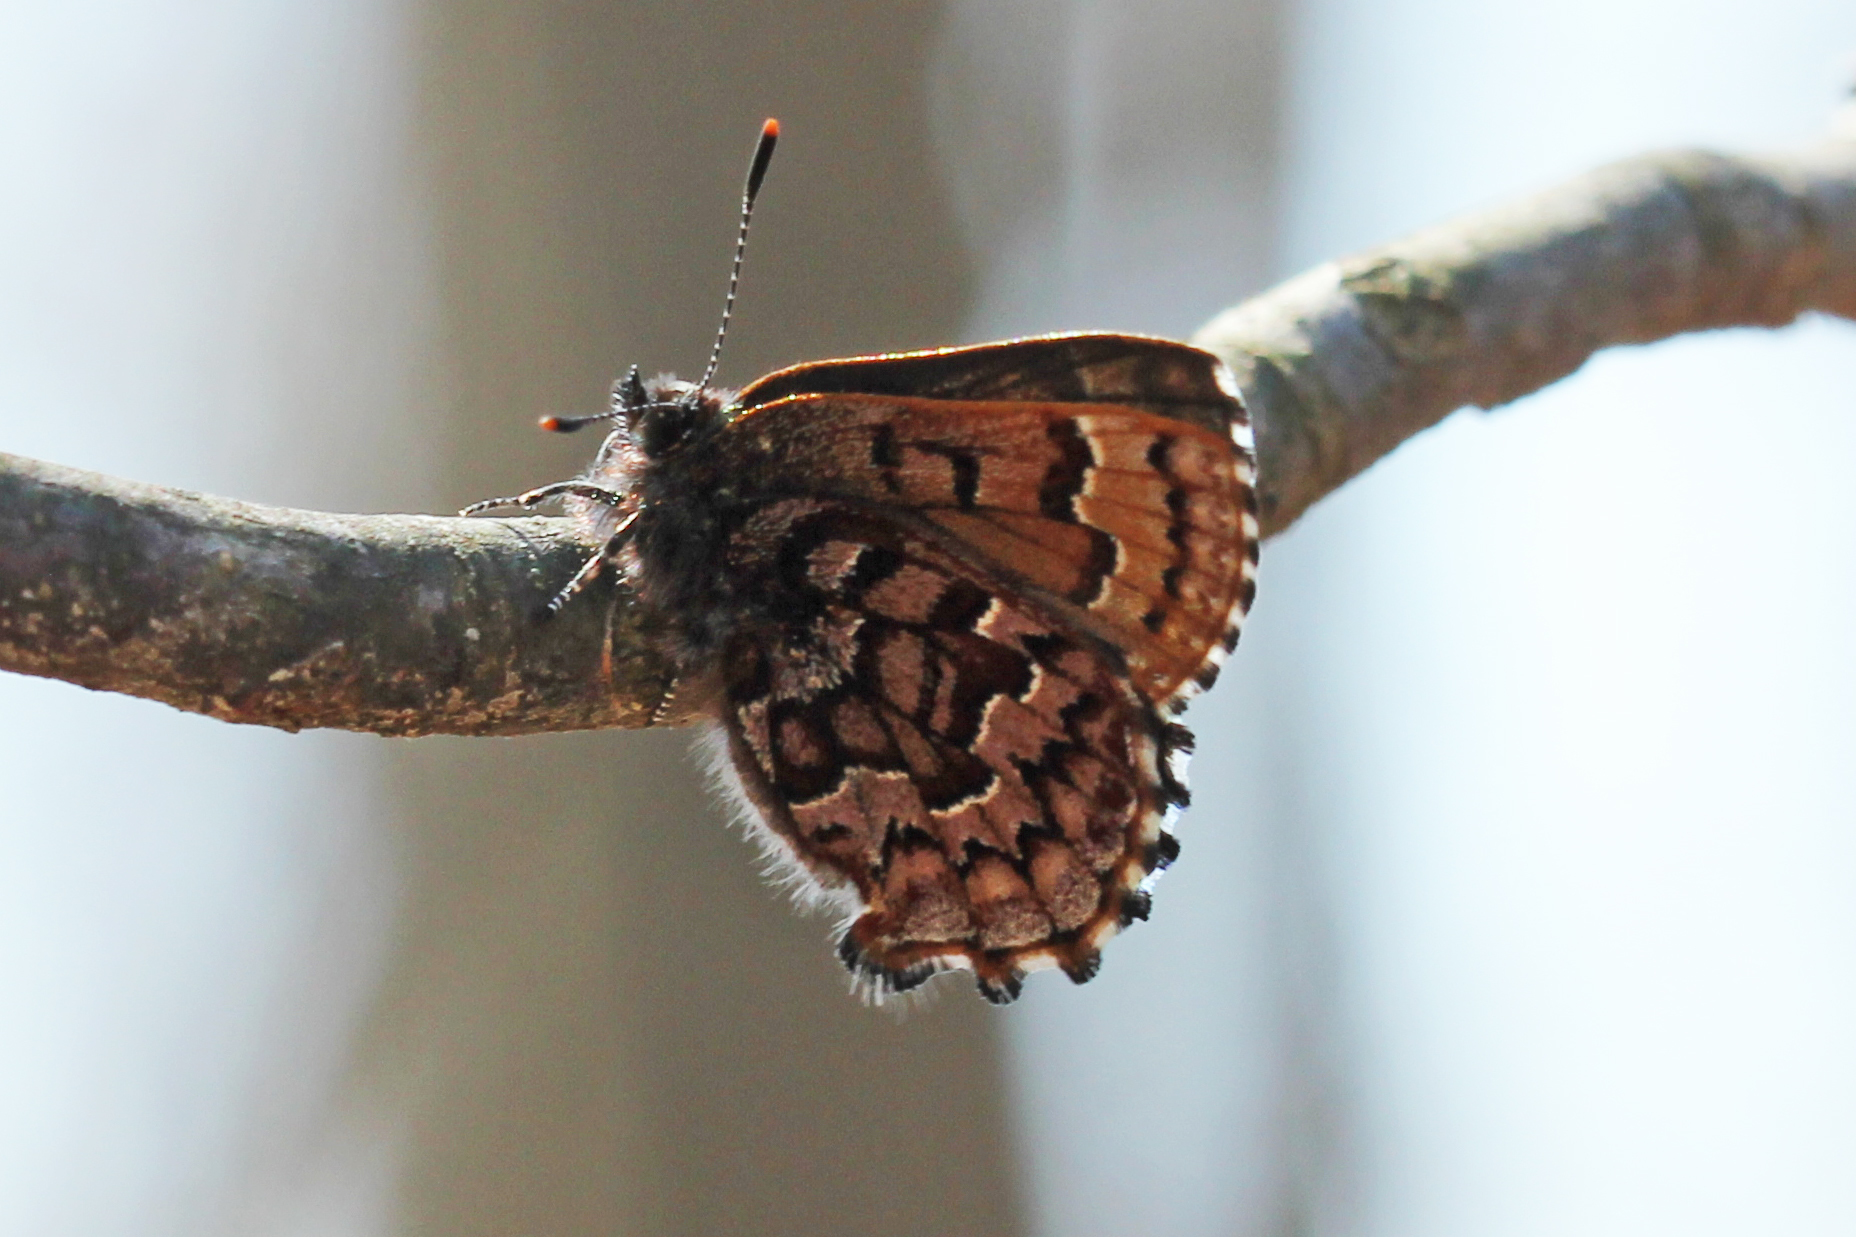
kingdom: Animalia
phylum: Arthropoda
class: Insecta
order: Lepidoptera
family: Lycaenidae
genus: Incisalia
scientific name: Incisalia niphon
